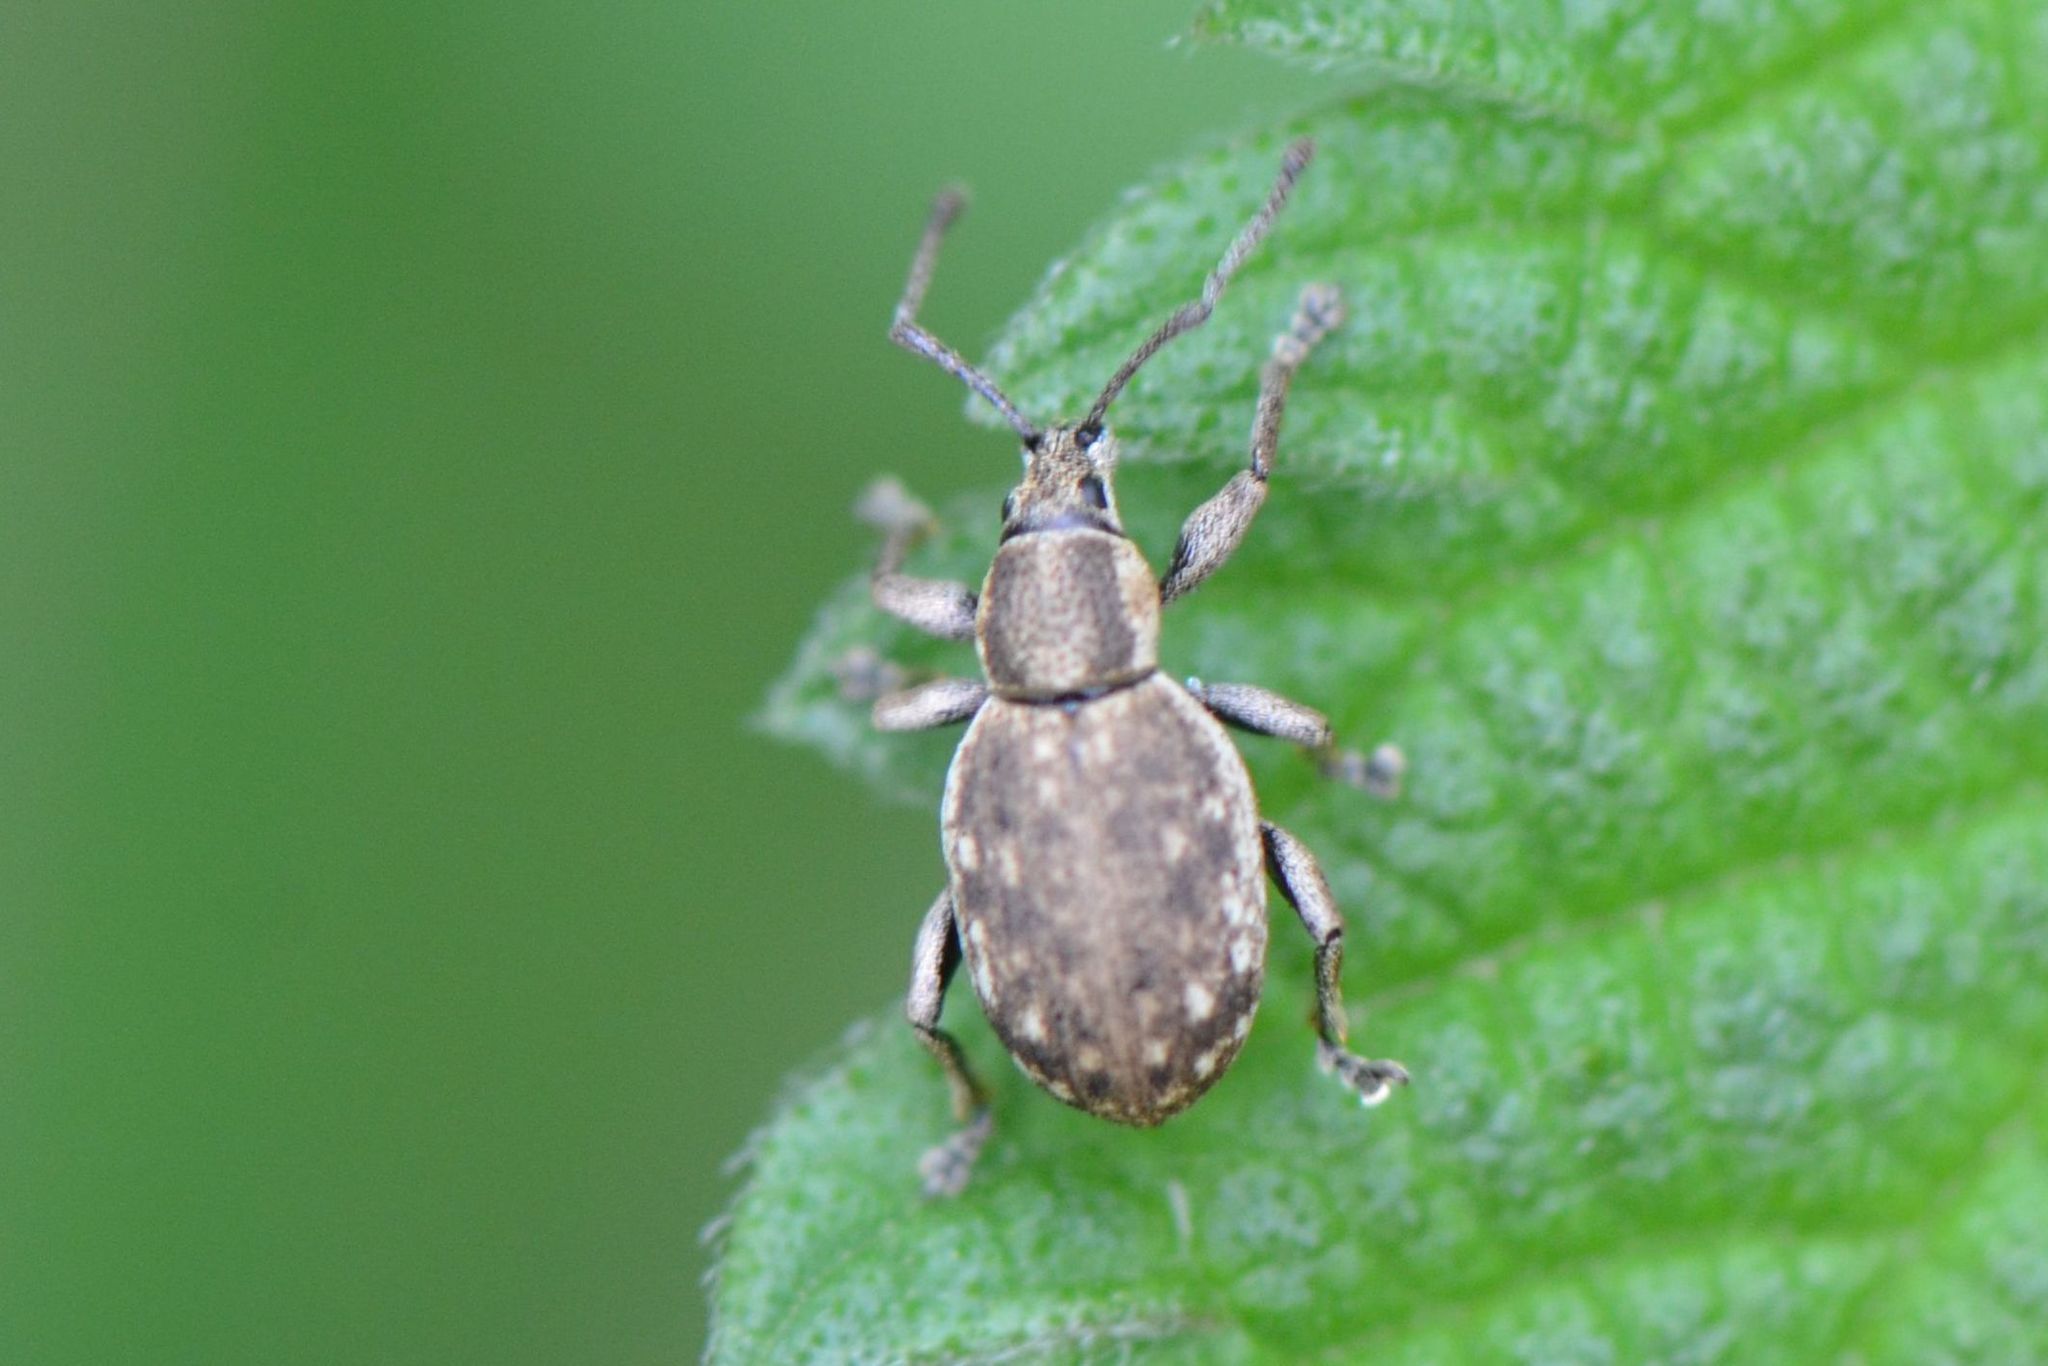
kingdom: Animalia
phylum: Arthropoda
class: Insecta
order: Coleoptera
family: Curculionidae
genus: Peritelus
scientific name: Peritelus sphaeroides
